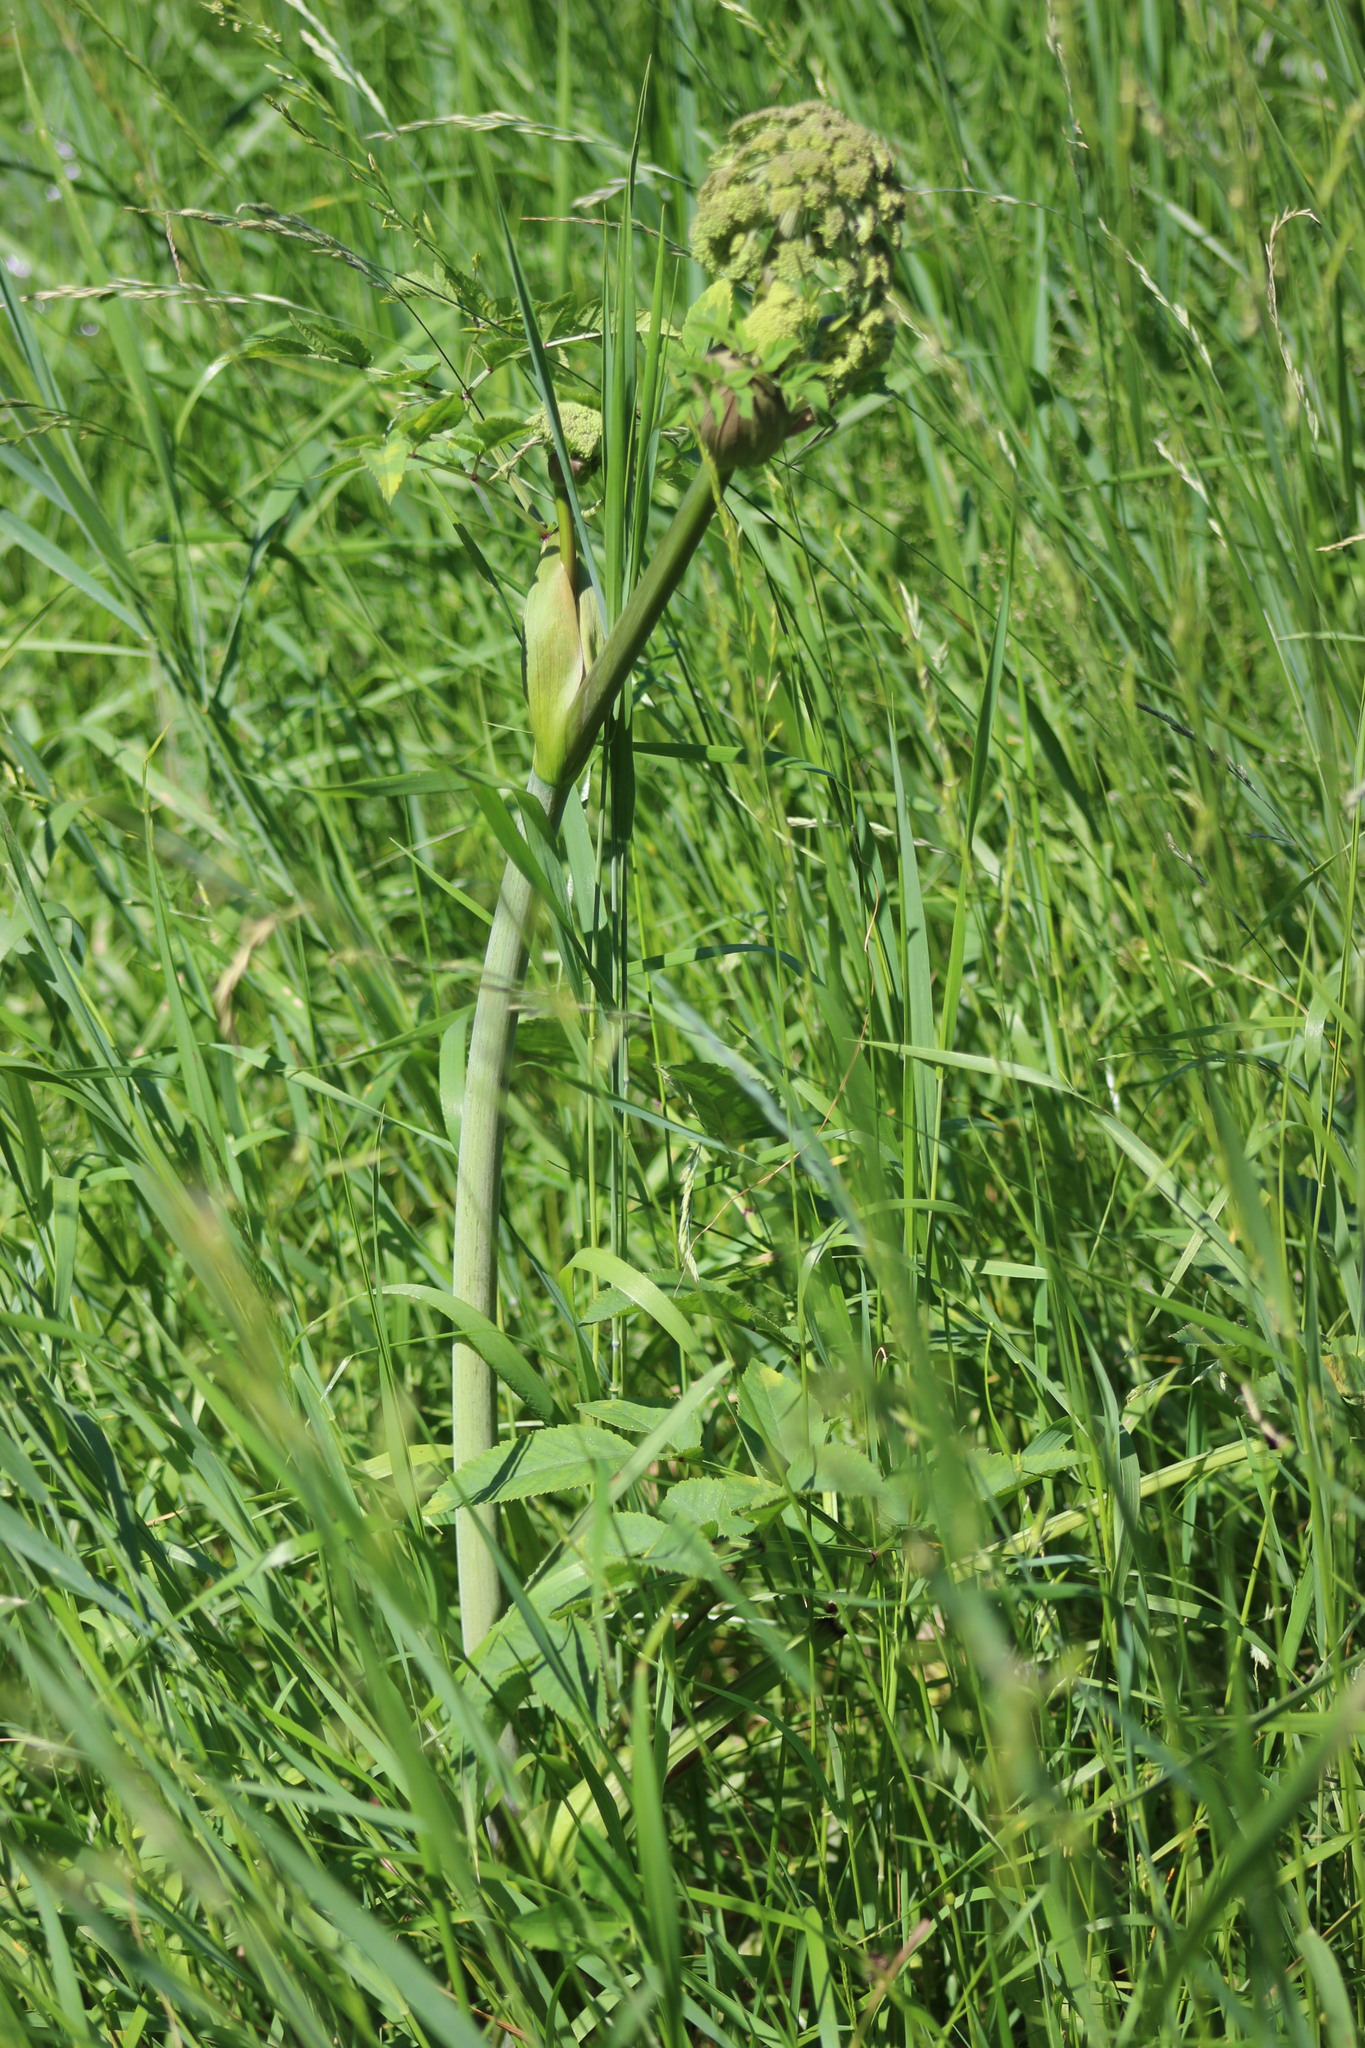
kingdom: Plantae
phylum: Tracheophyta
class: Magnoliopsida
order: Apiales
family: Apiaceae
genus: Angelica
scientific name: Angelica decurrens
